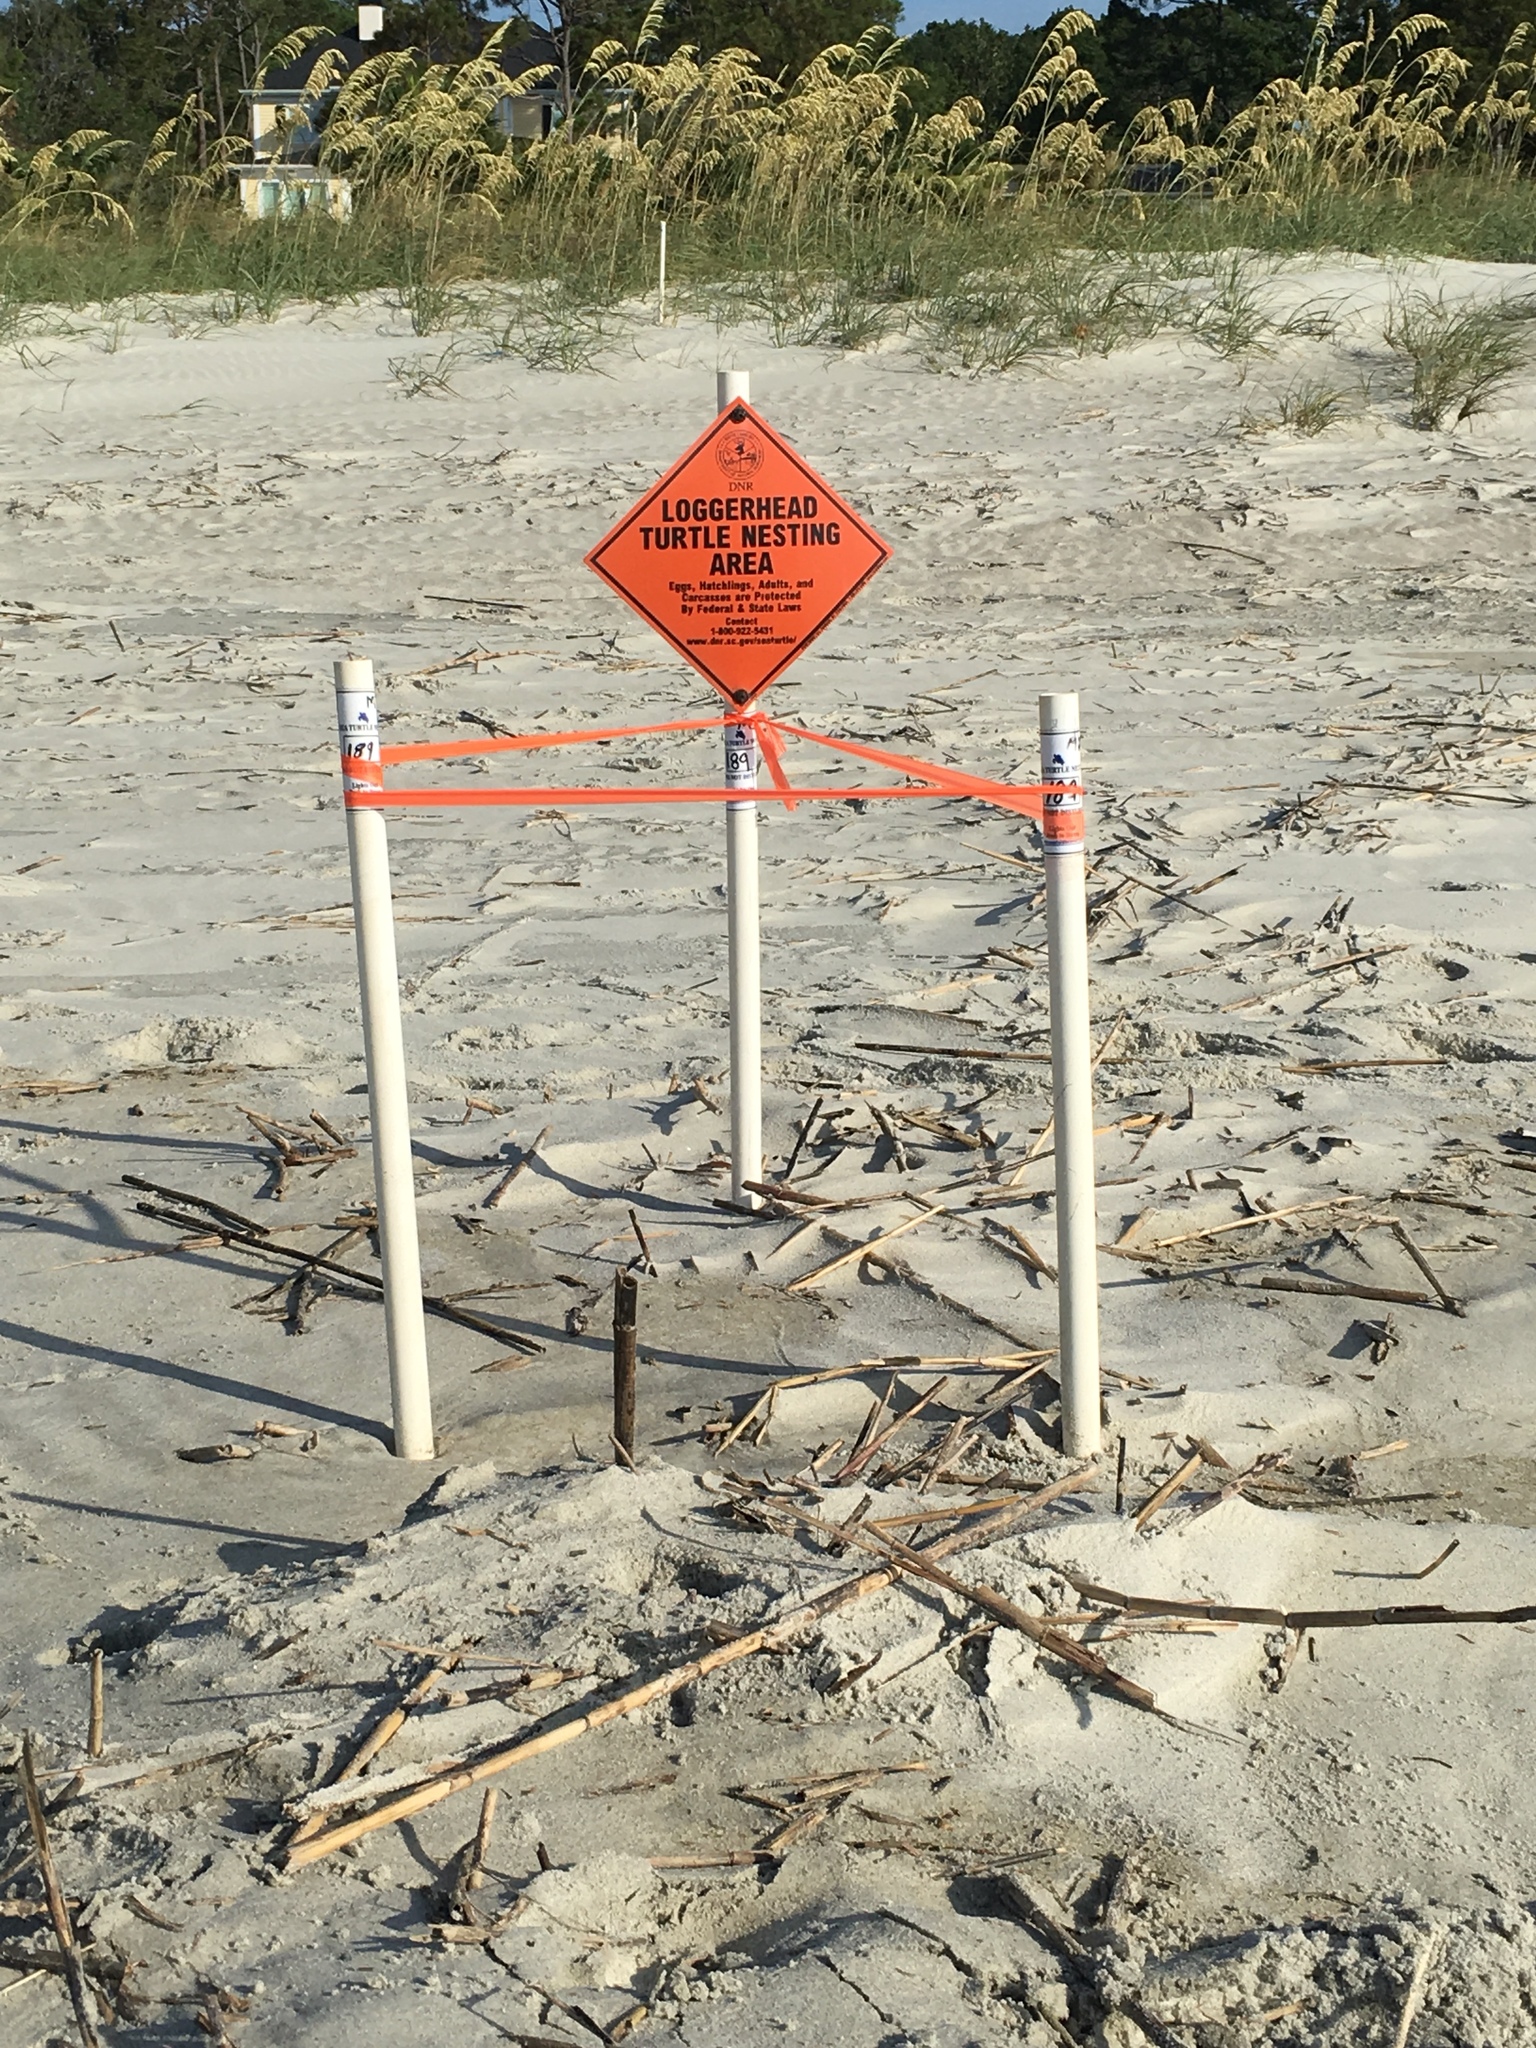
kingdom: Animalia
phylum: Chordata
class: Testudines
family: Cheloniidae
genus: Caretta
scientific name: Caretta caretta
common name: Loggerhead sea turtle
